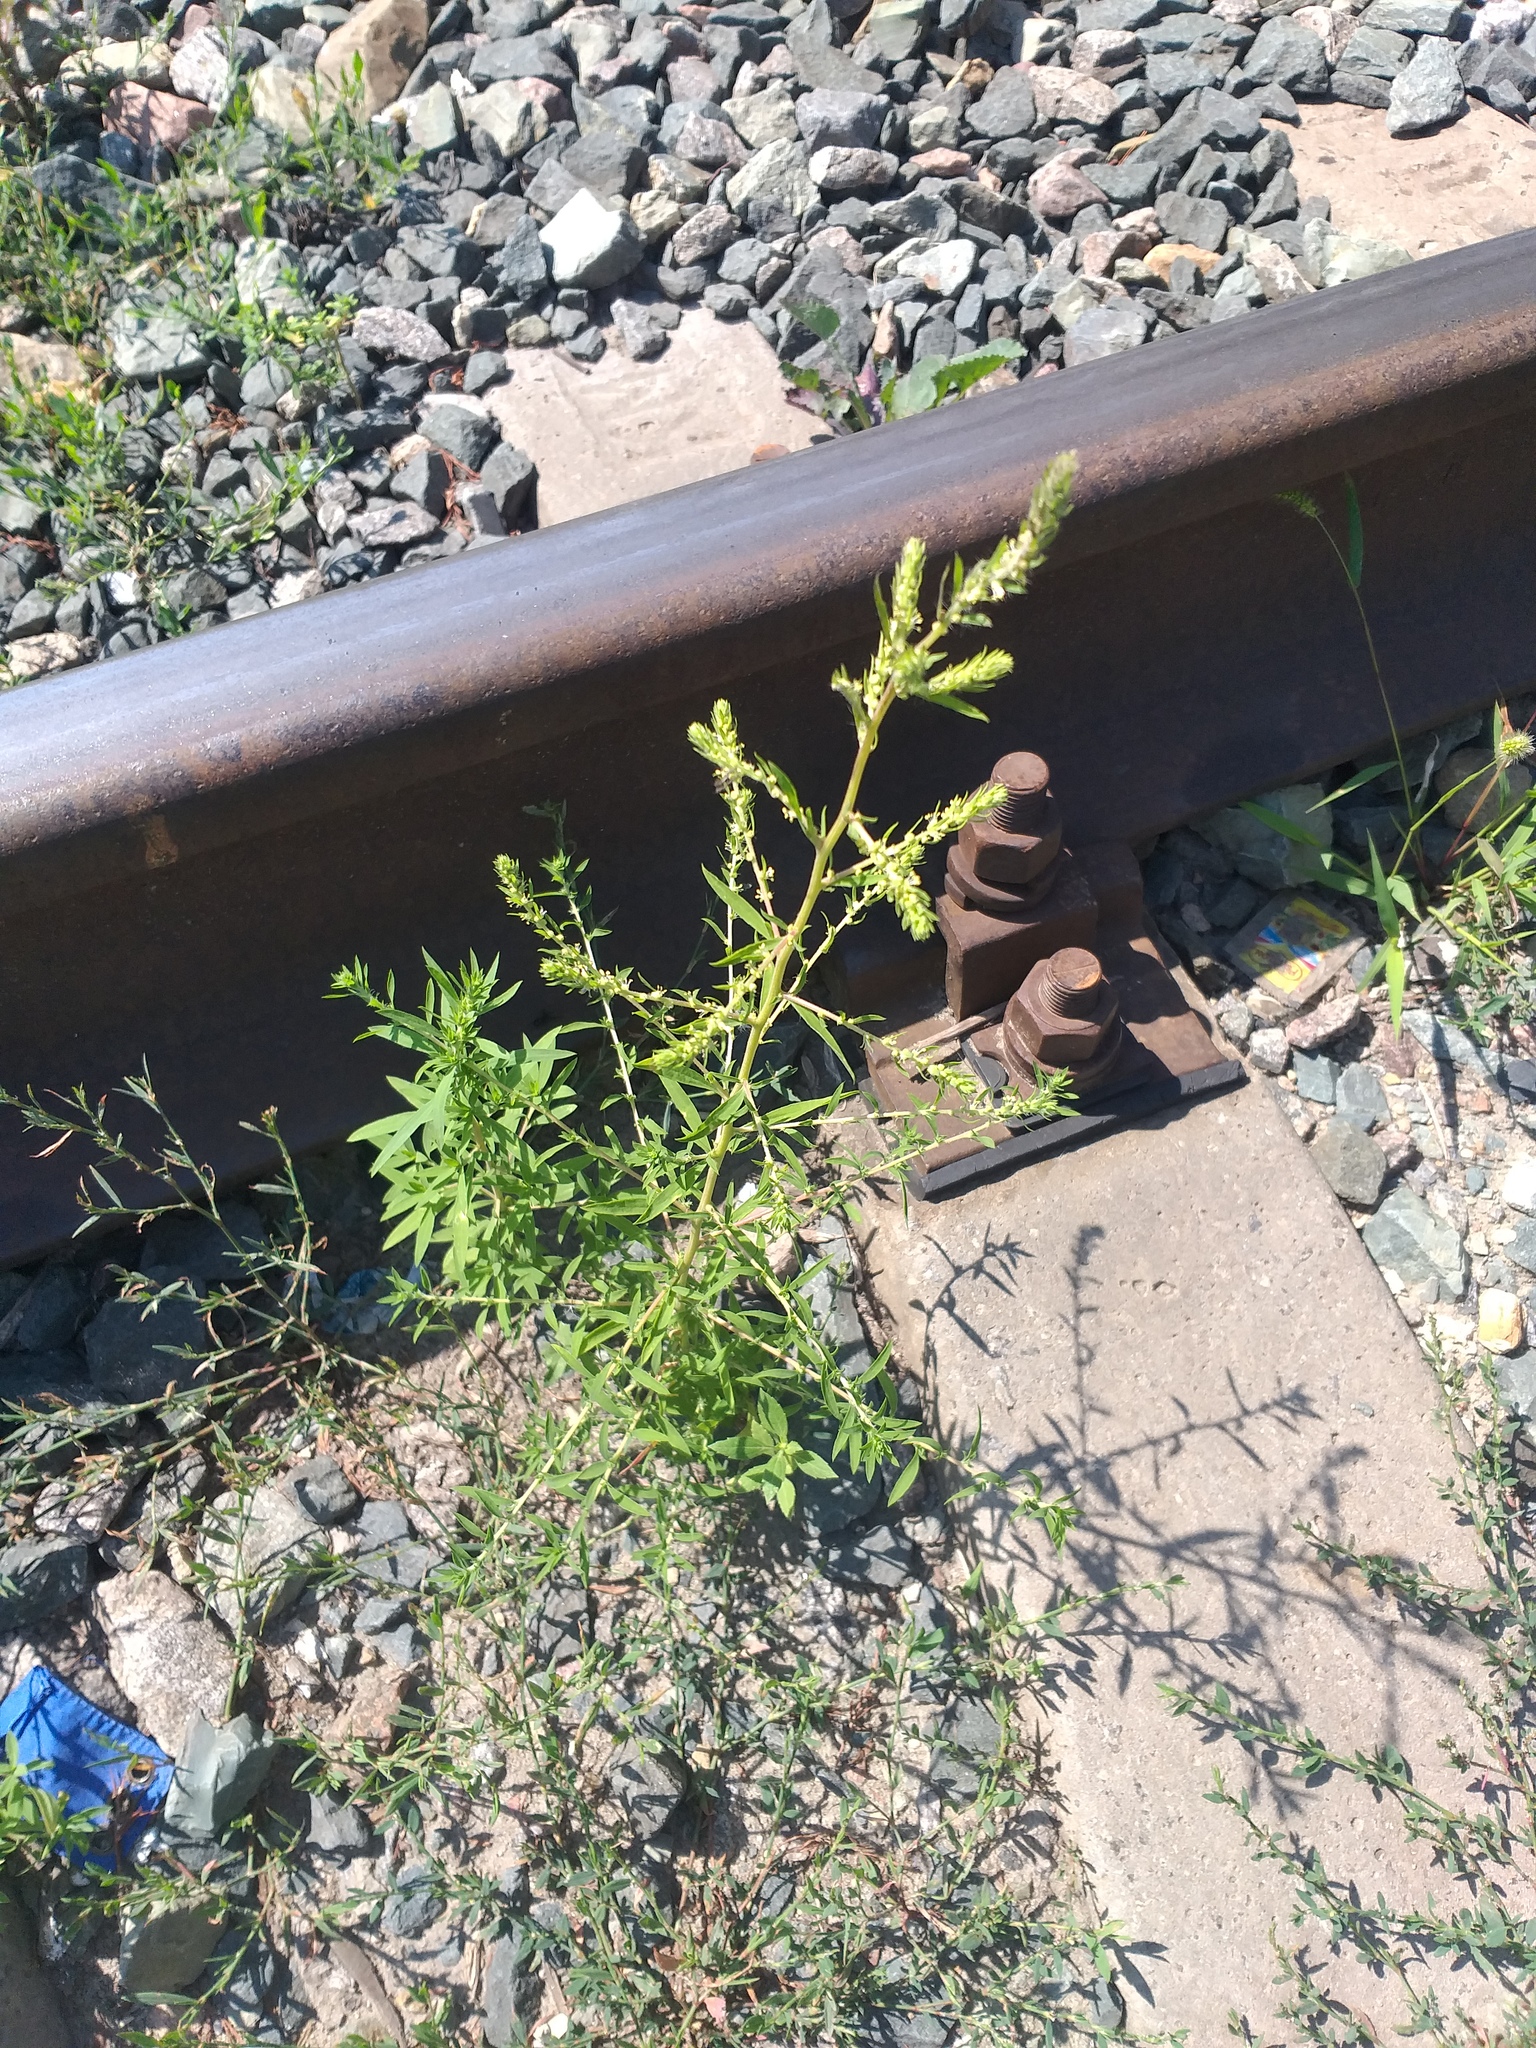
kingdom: Plantae
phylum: Tracheophyta
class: Magnoliopsida
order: Caryophyllales
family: Amaranthaceae
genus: Bassia
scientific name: Bassia scoparia
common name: Belvedere
